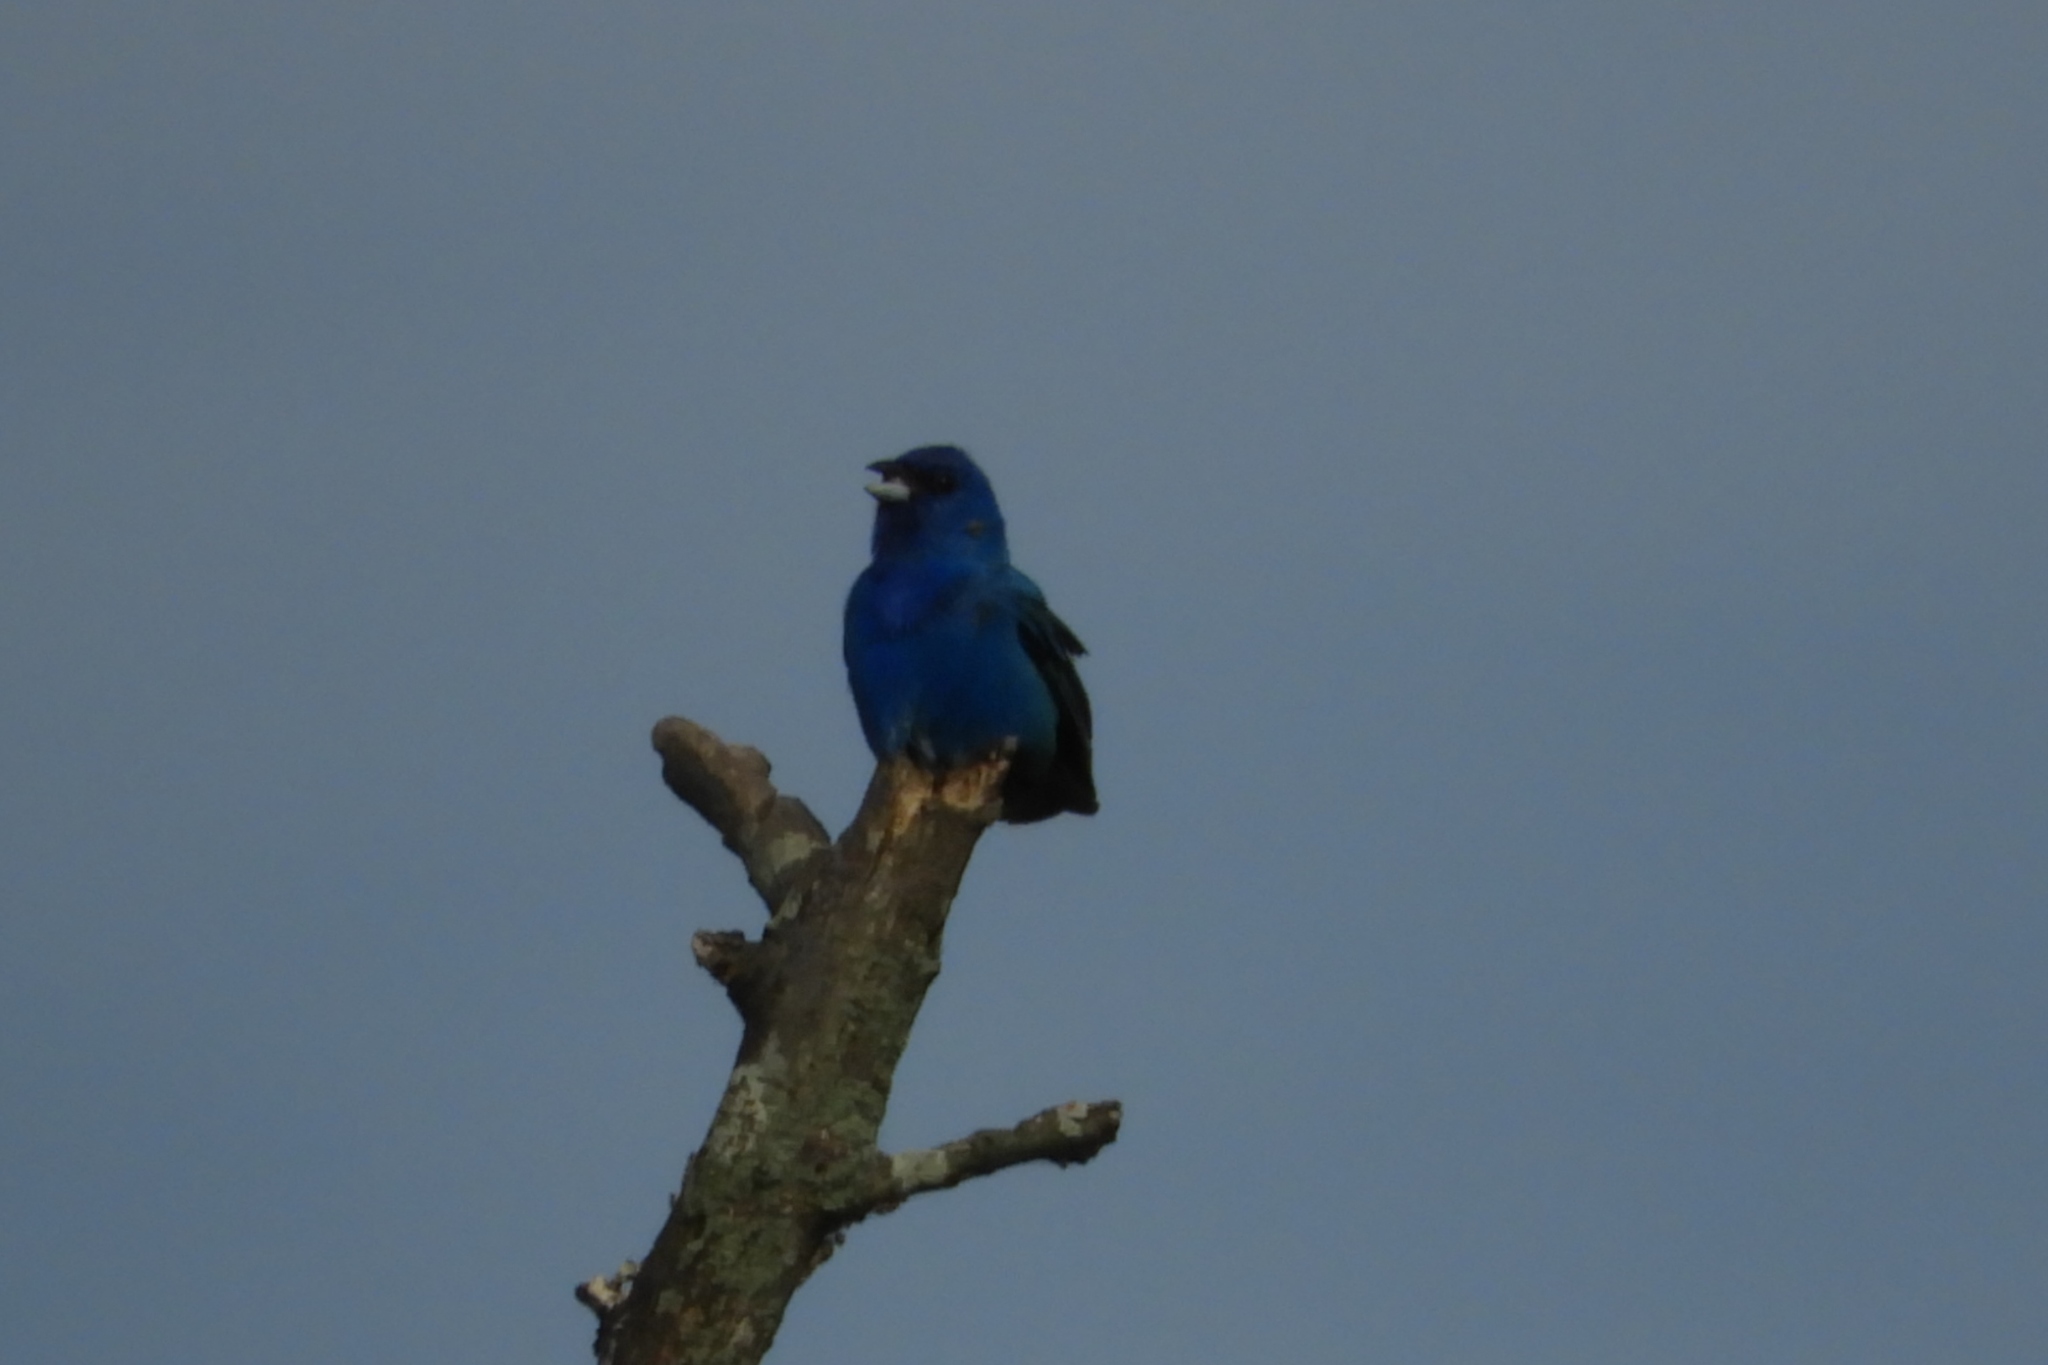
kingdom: Animalia
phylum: Chordata
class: Aves
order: Passeriformes
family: Cardinalidae
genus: Passerina
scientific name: Passerina cyanea
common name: Indigo bunting
